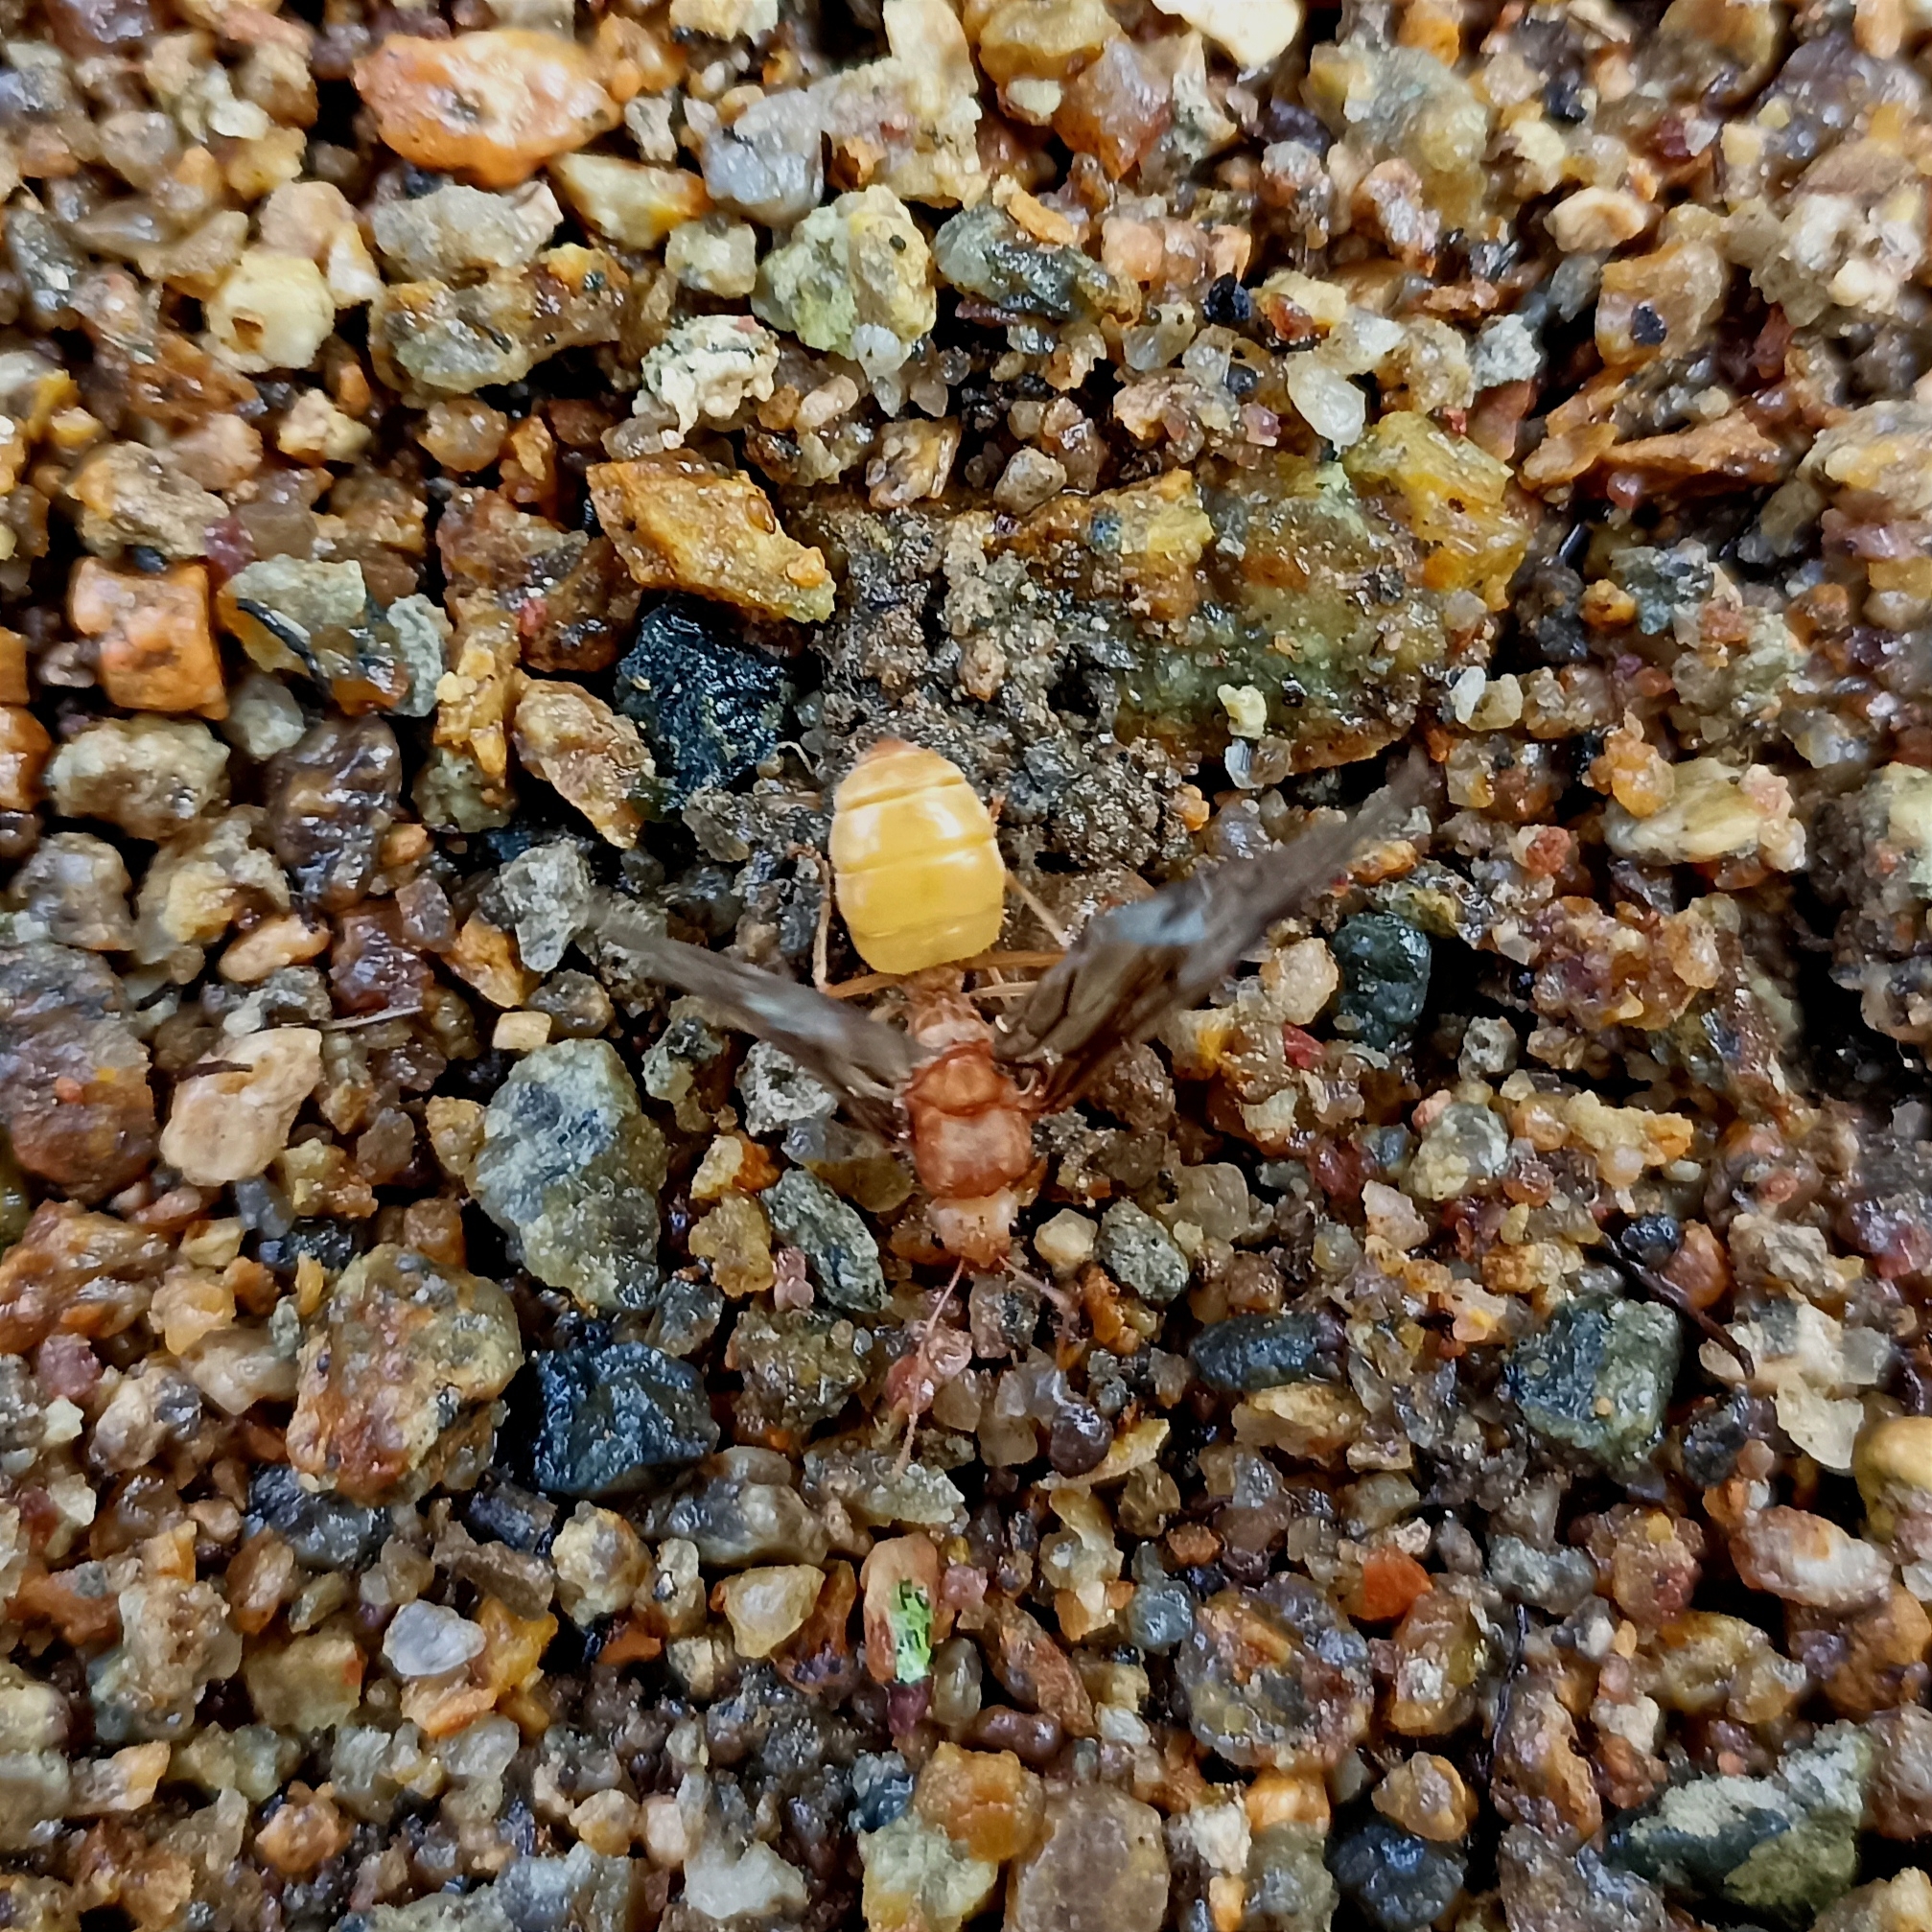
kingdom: Animalia
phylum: Arthropoda
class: Insecta
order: Hymenoptera
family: Formicidae
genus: Oecophylla
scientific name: Oecophylla smaragdina
